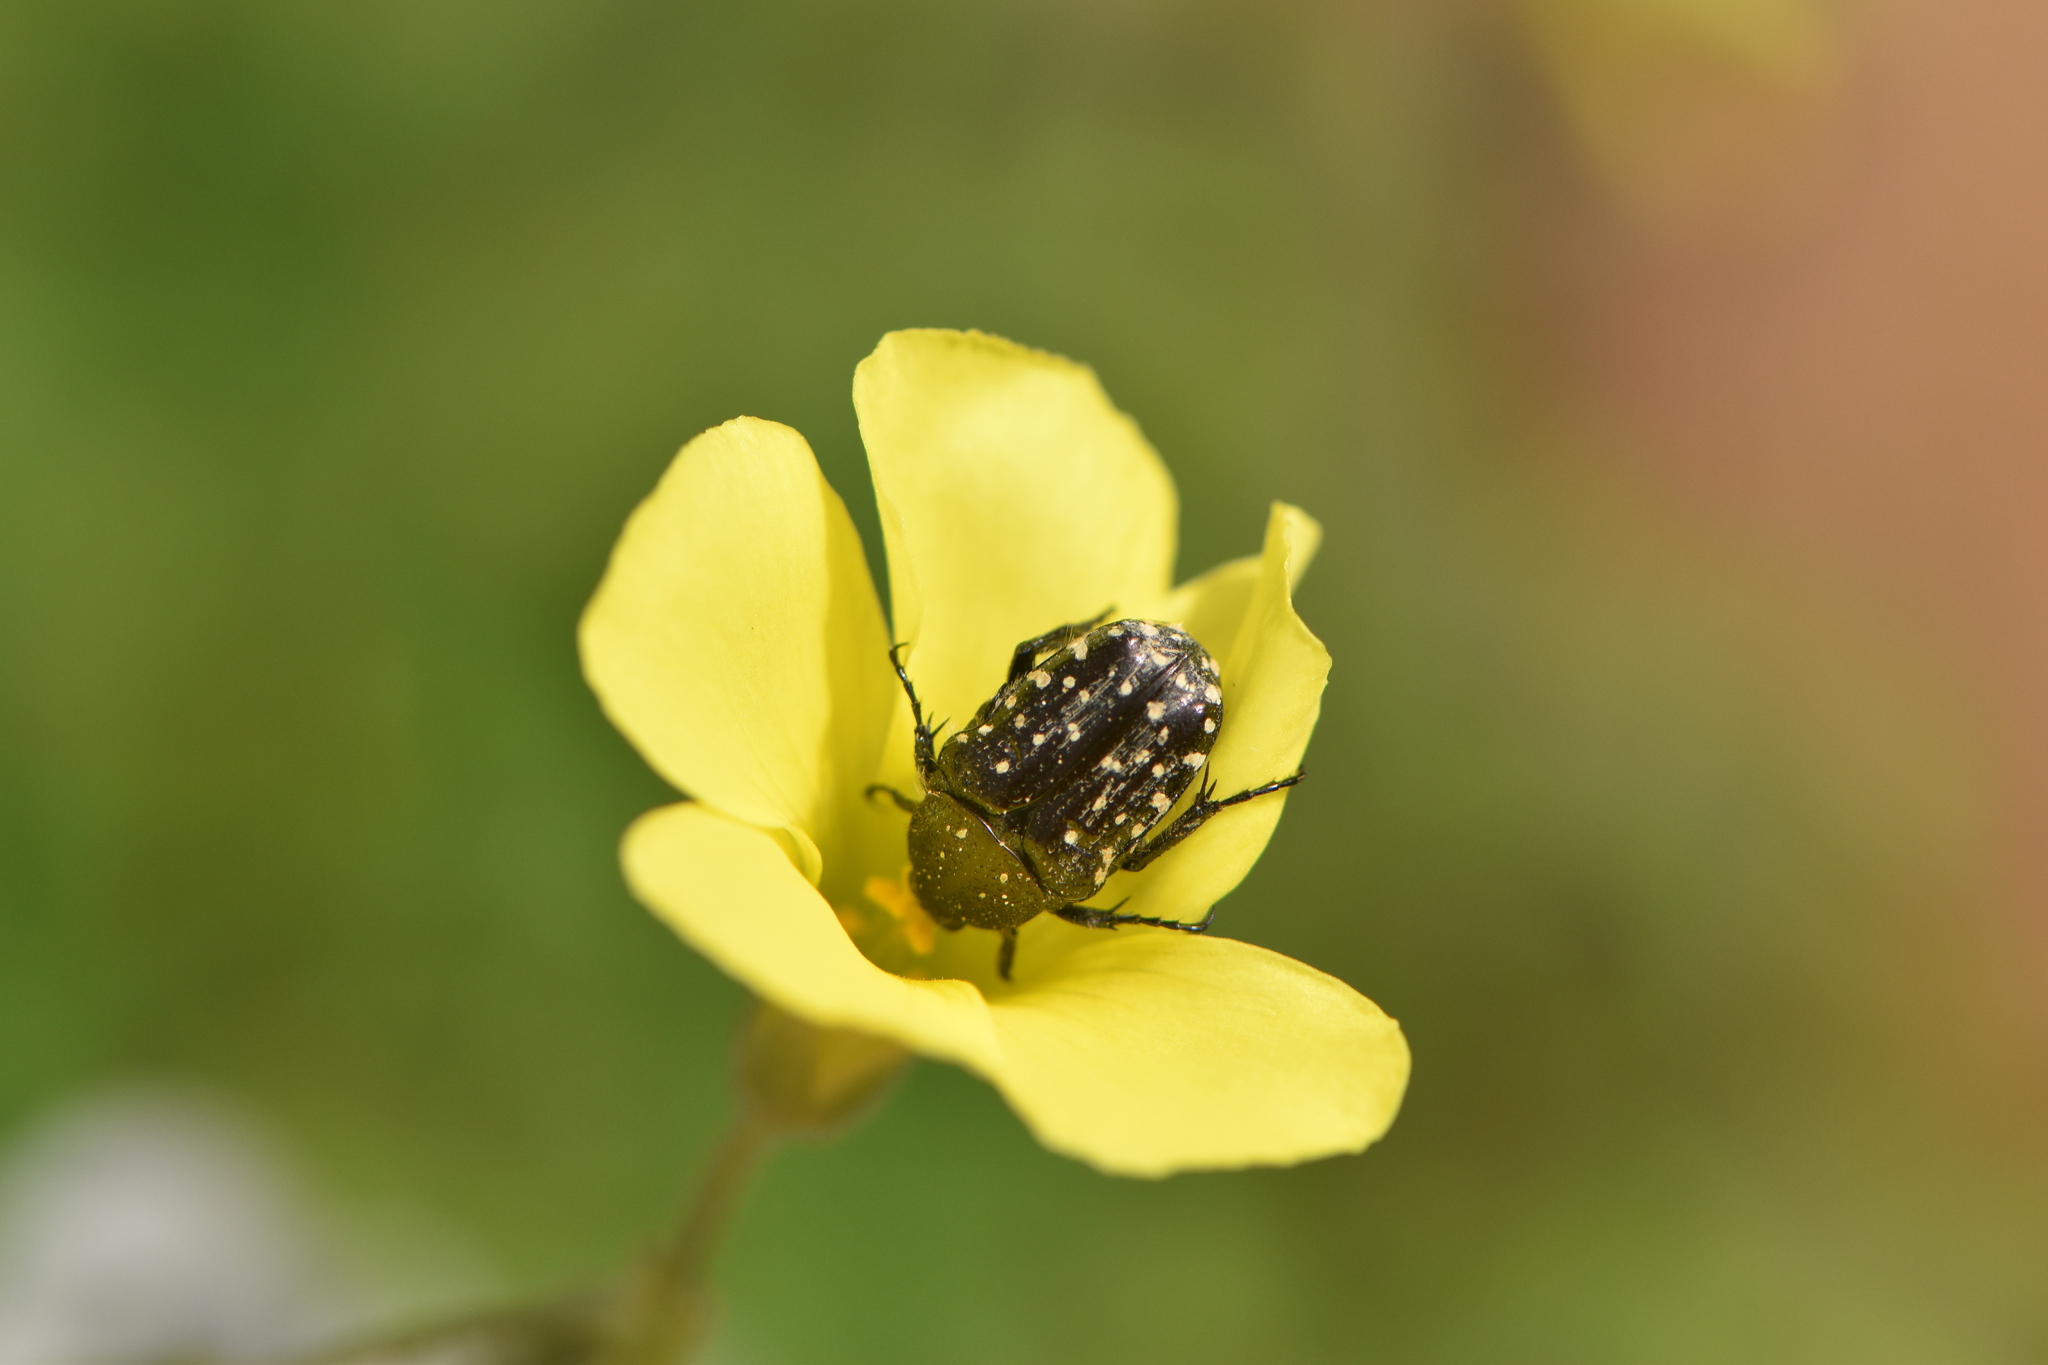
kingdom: Animalia
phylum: Arthropoda
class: Insecta
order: Coleoptera
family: Scarabaeidae
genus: Oxythyrea
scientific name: Oxythyrea funesta
